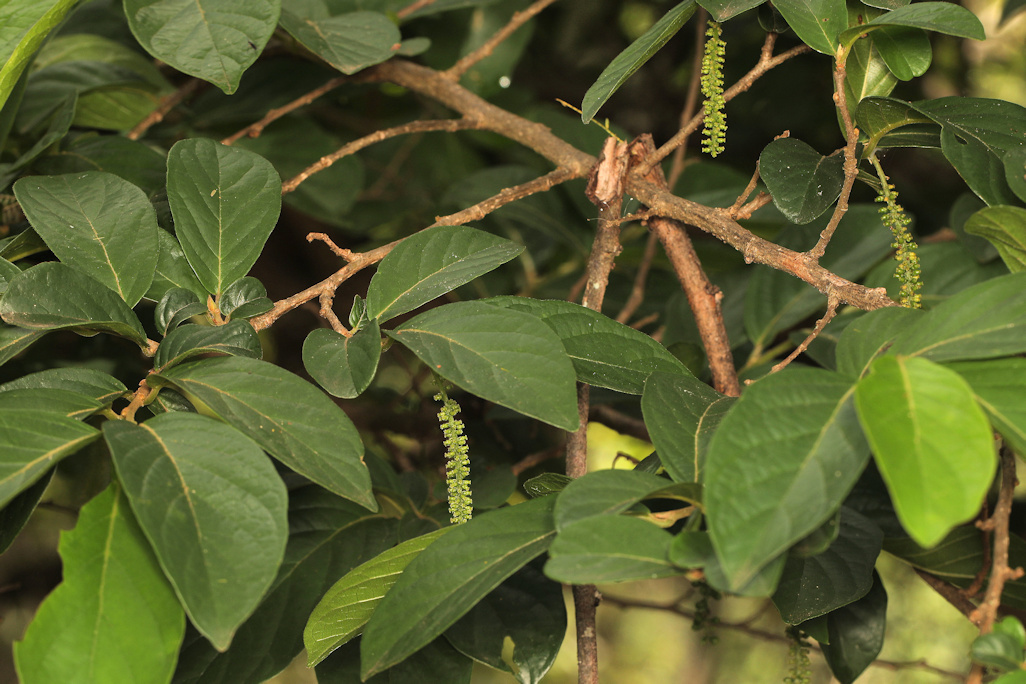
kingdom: Plantae
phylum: Tracheophyta
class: Magnoliopsida
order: Malpighiales
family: Phyllanthaceae
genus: Antidesma
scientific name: Antidesma venosum
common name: Tassel-berry
